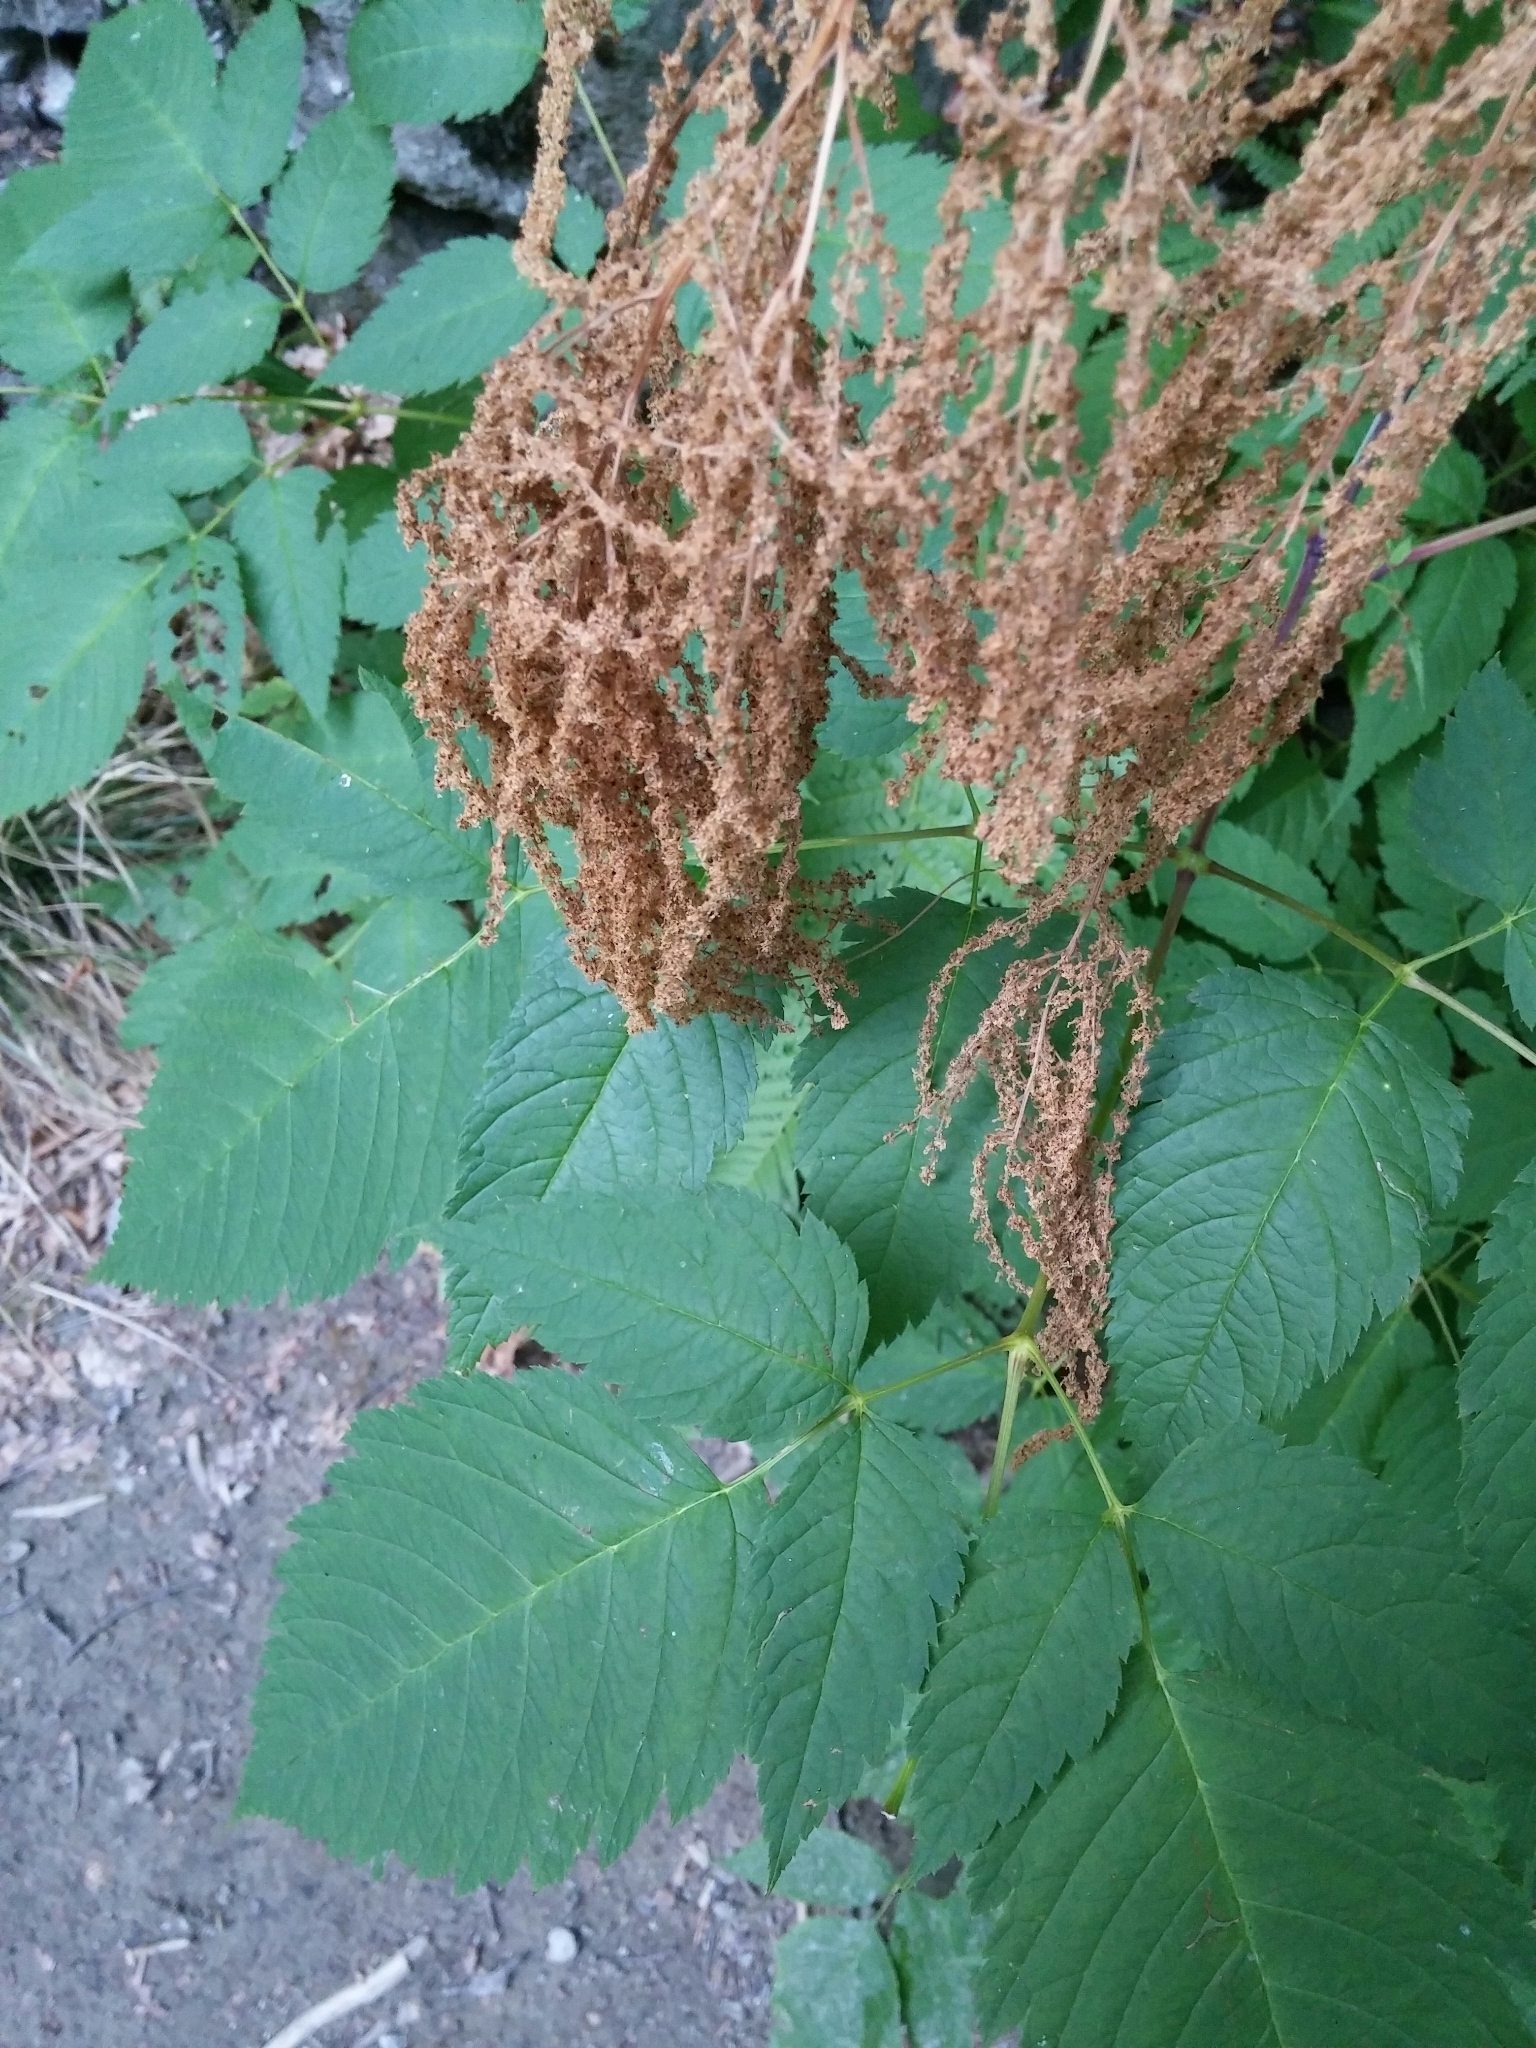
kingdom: Plantae
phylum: Tracheophyta
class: Magnoliopsida
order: Rosales
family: Rosaceae
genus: Aruncus
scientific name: Aruncus dioicus
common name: Buck's-beard
